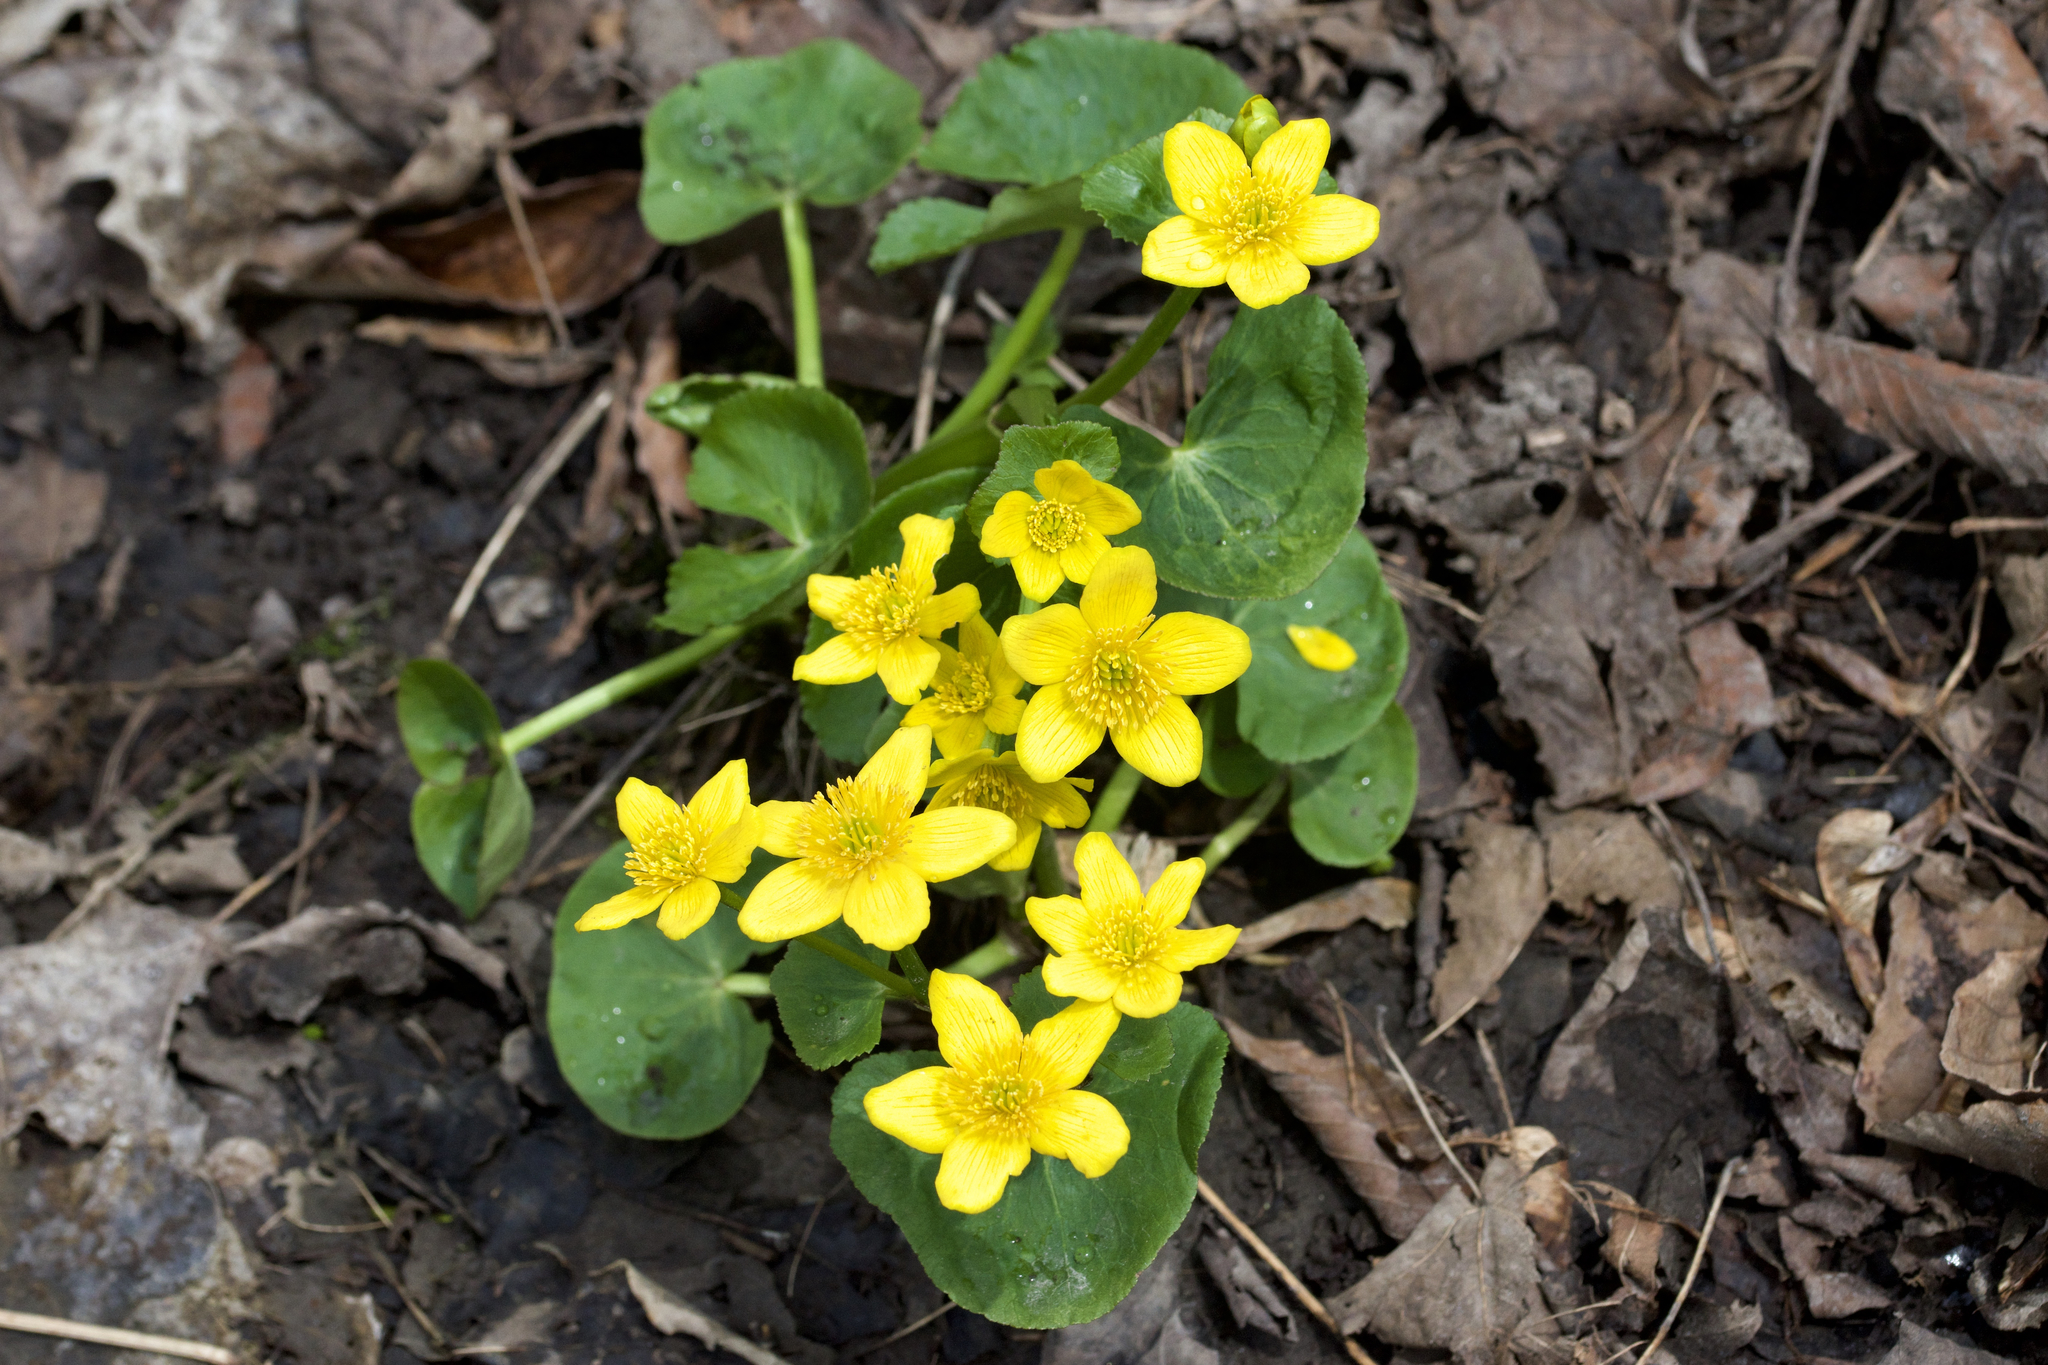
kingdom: Plantae
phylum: Tracheophyta
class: Magnoliopsida
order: Ranunculales
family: Ranunculaceae
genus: Caltha
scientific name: Caltha palustris
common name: Marsh marigold
